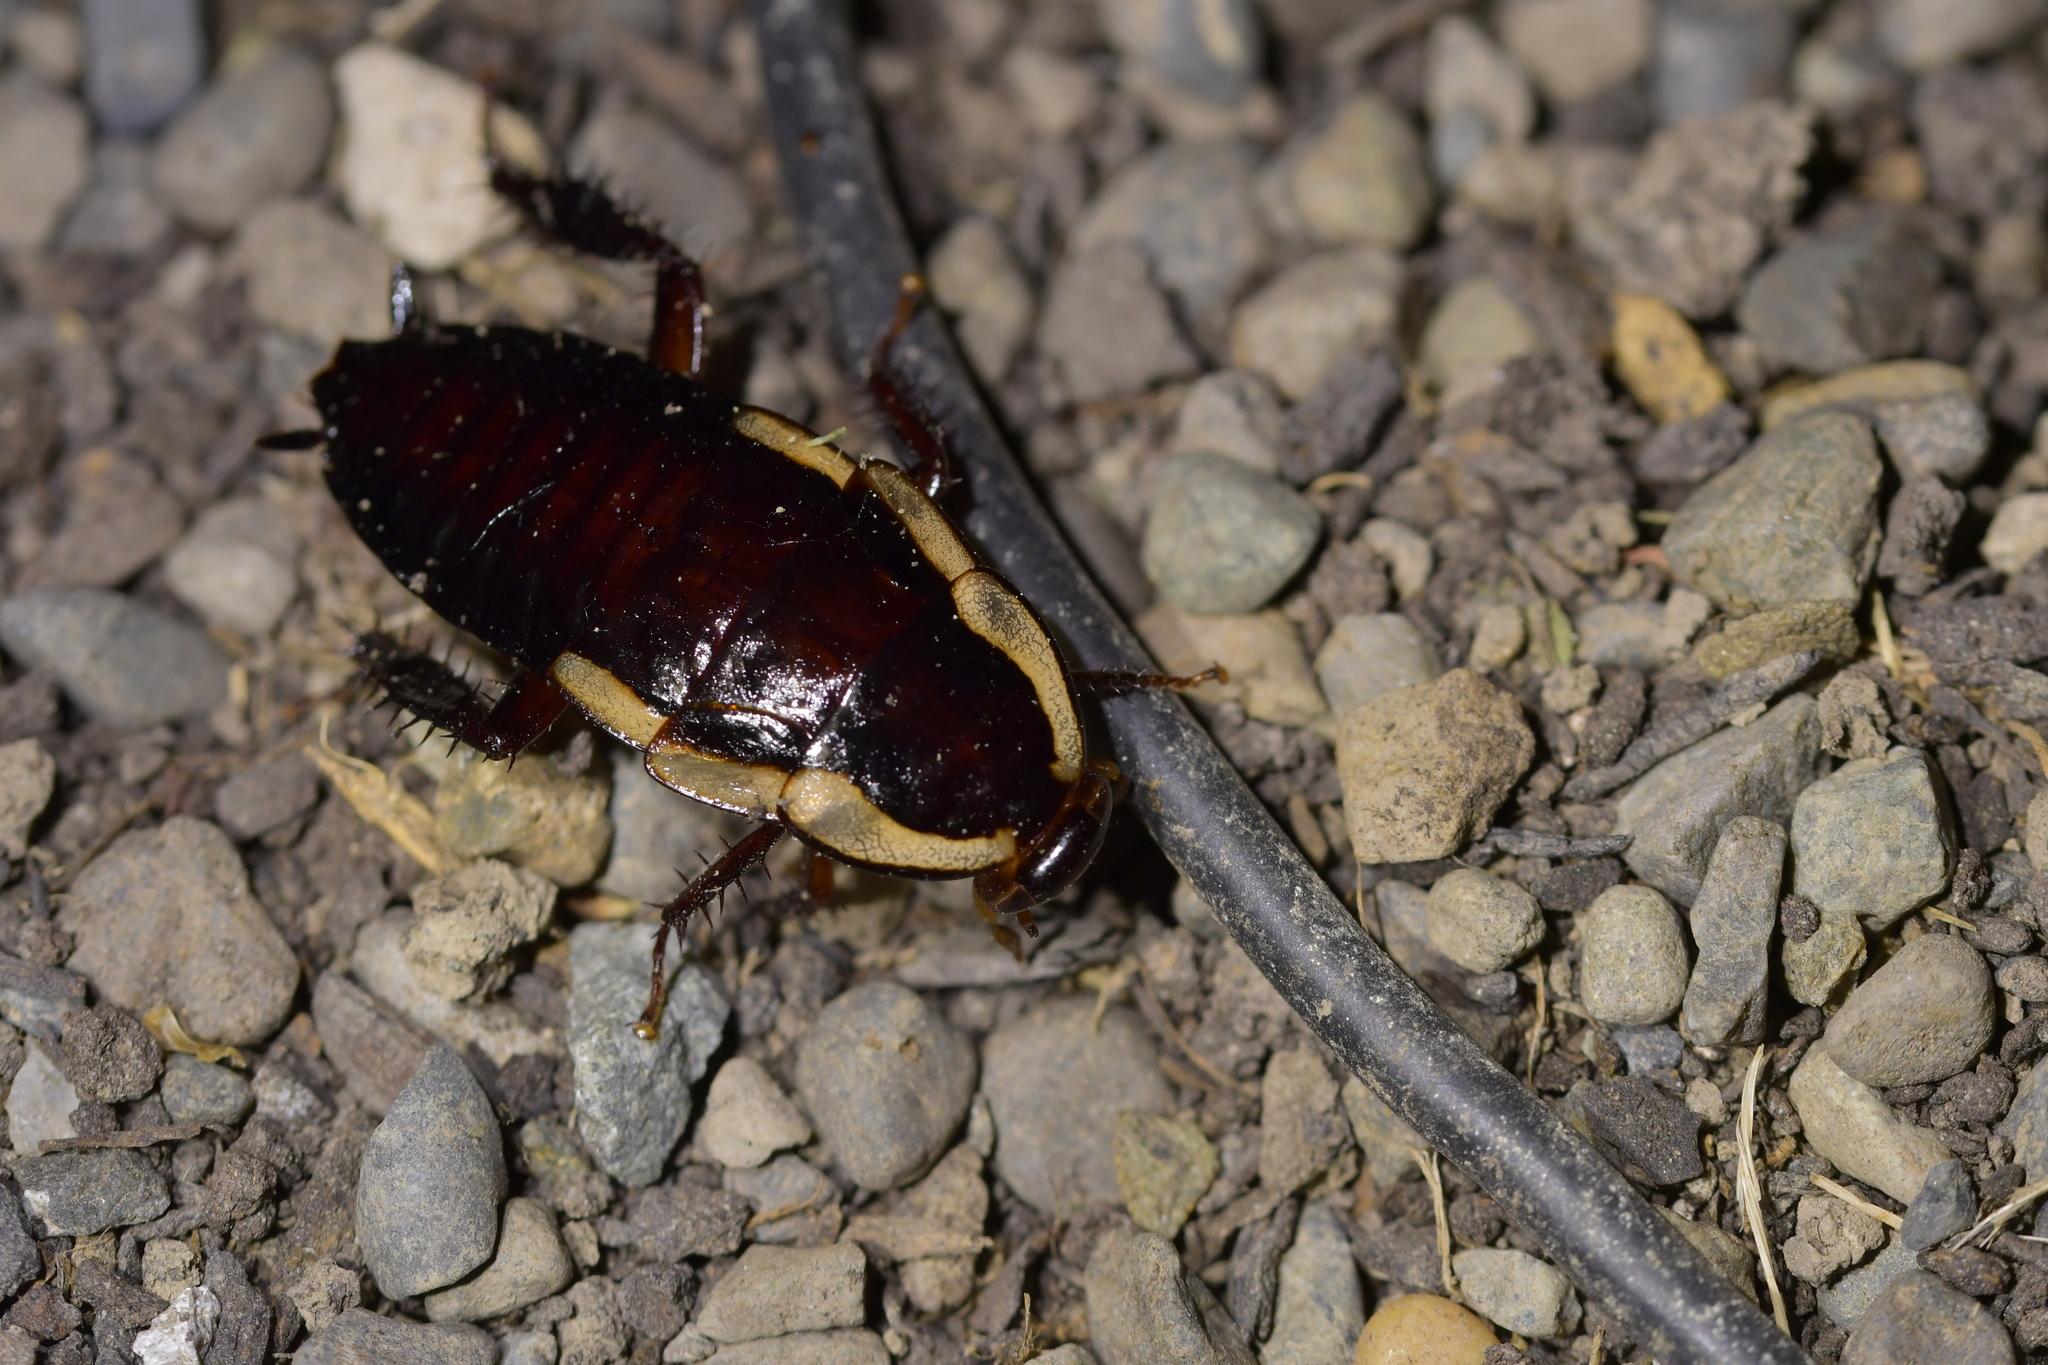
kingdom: Animalia
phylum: Arthropoda
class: Insecta
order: Blattodea
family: Blattidae
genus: Drymaplaneta
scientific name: Drymaplaneta semivitta
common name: Gisborne cockroach
